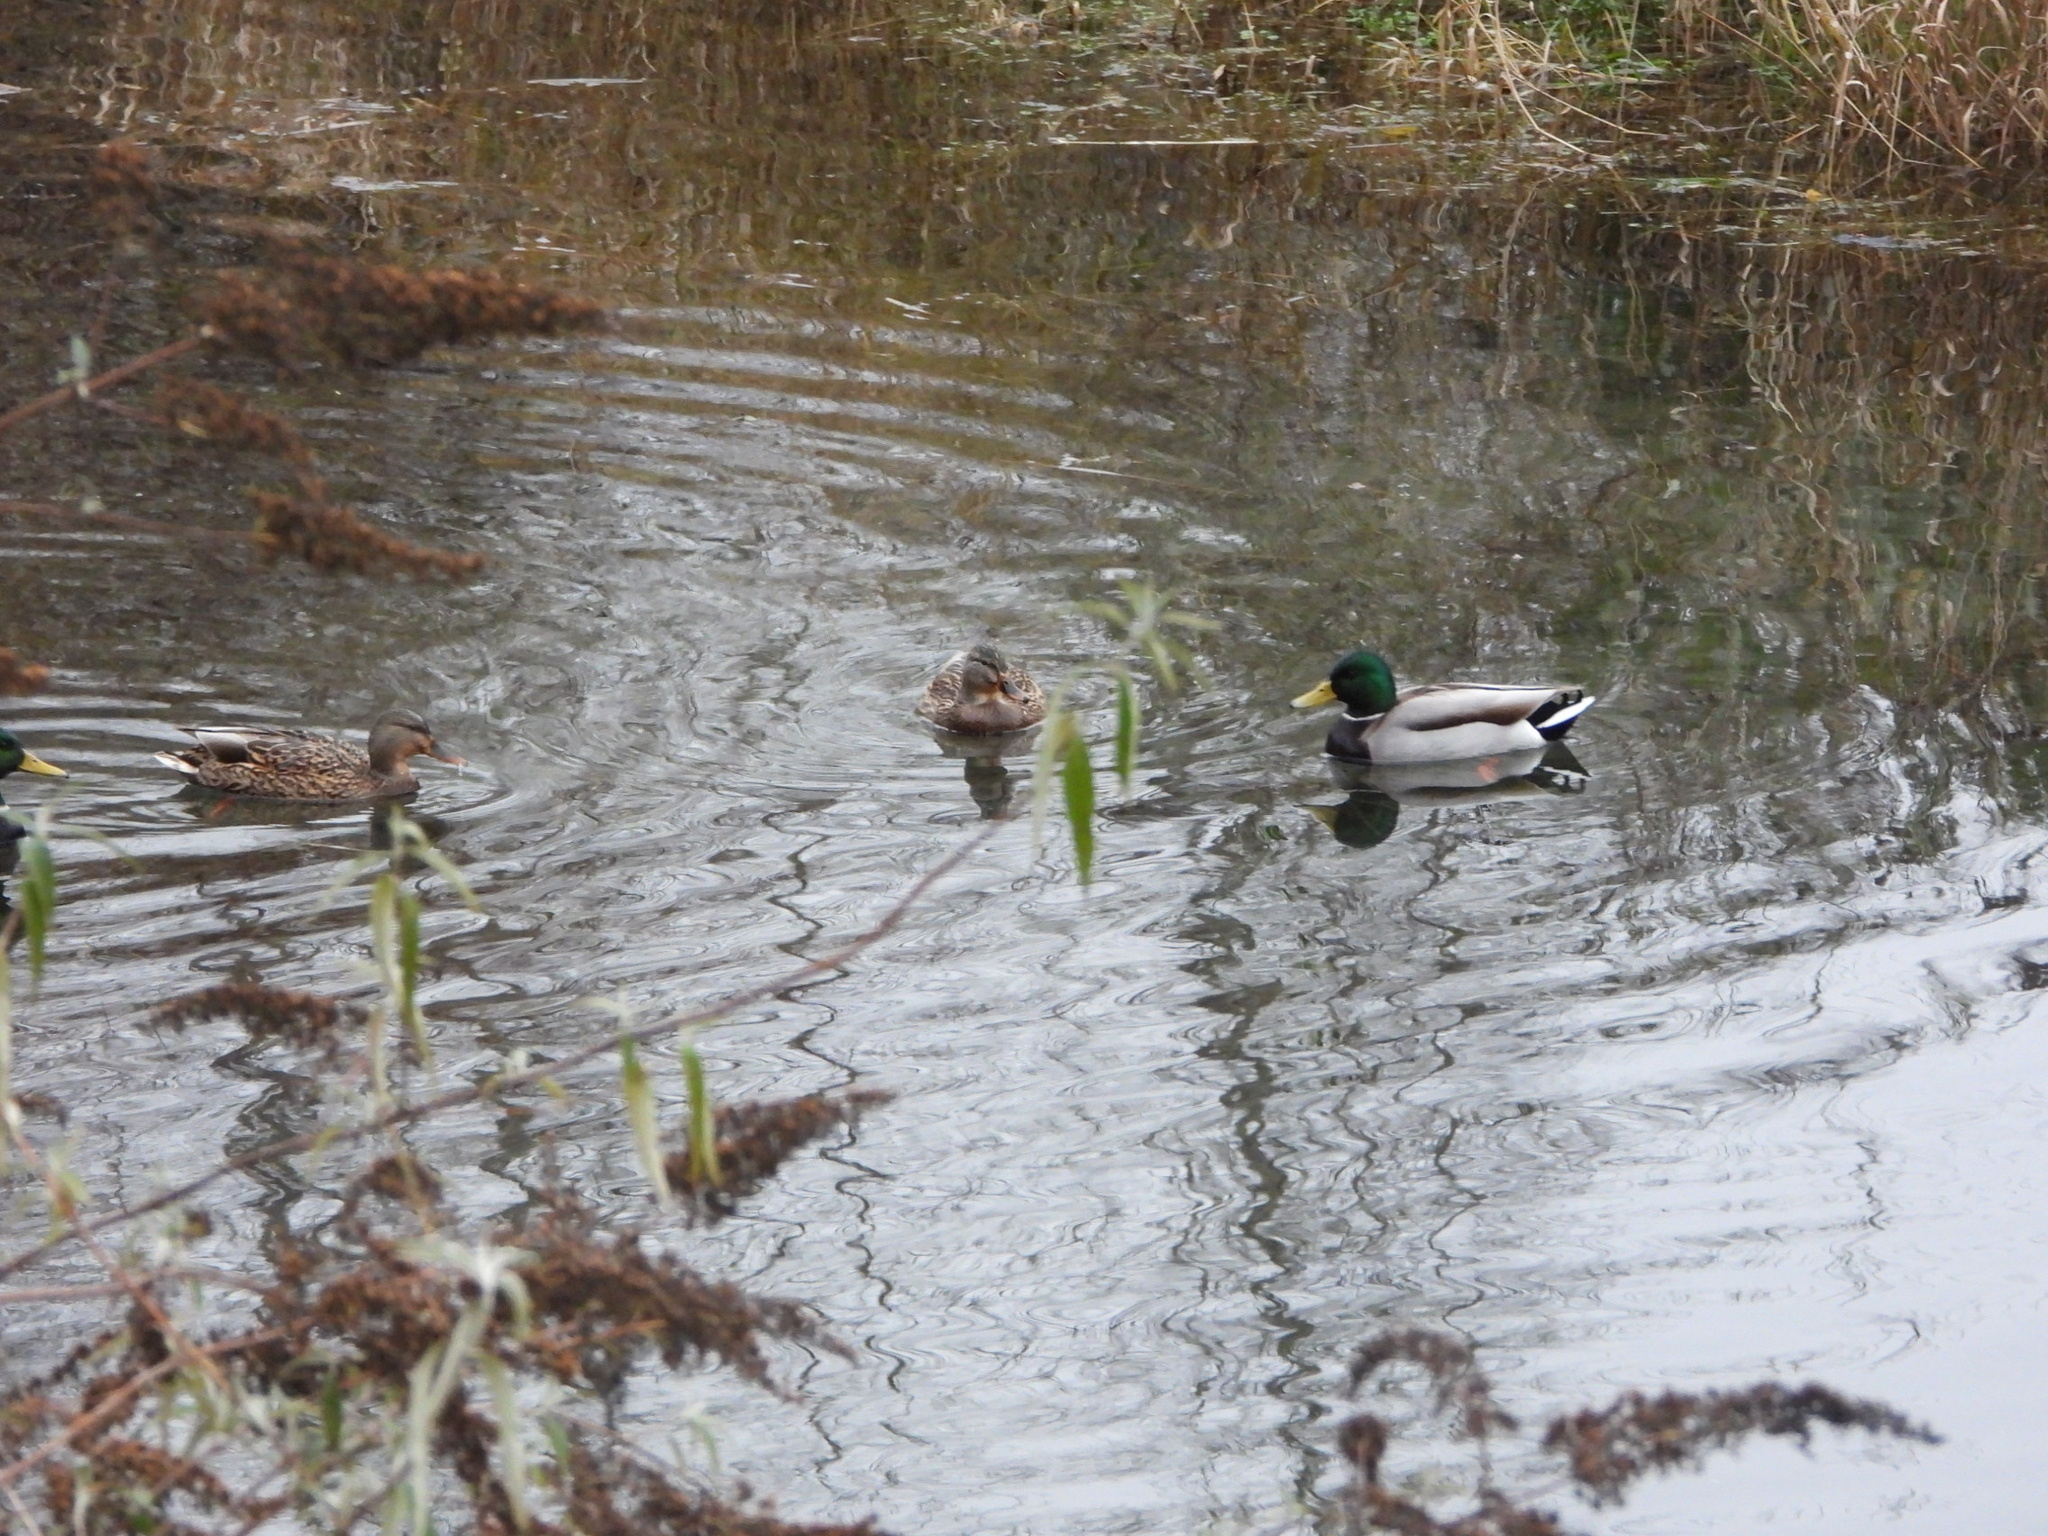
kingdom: Animalia
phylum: Chordata
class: Aves
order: Anseriformes
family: Anatidae
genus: Anas
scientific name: Anas platyrhynchos
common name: Mallard
